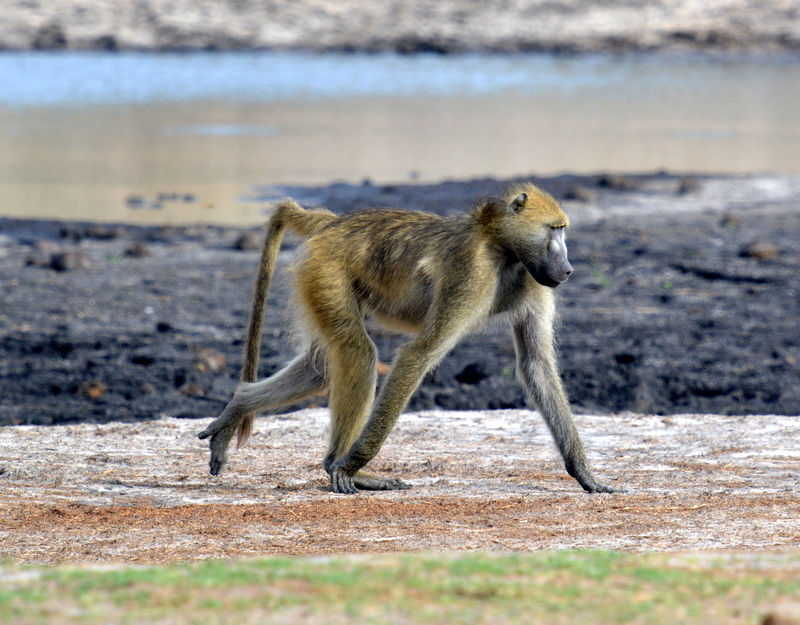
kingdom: Animalia
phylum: Chordata
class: Mammalia
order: Primates
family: Cercopithecidae
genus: Papio
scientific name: Papio ursinus
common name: Chacma baboon
